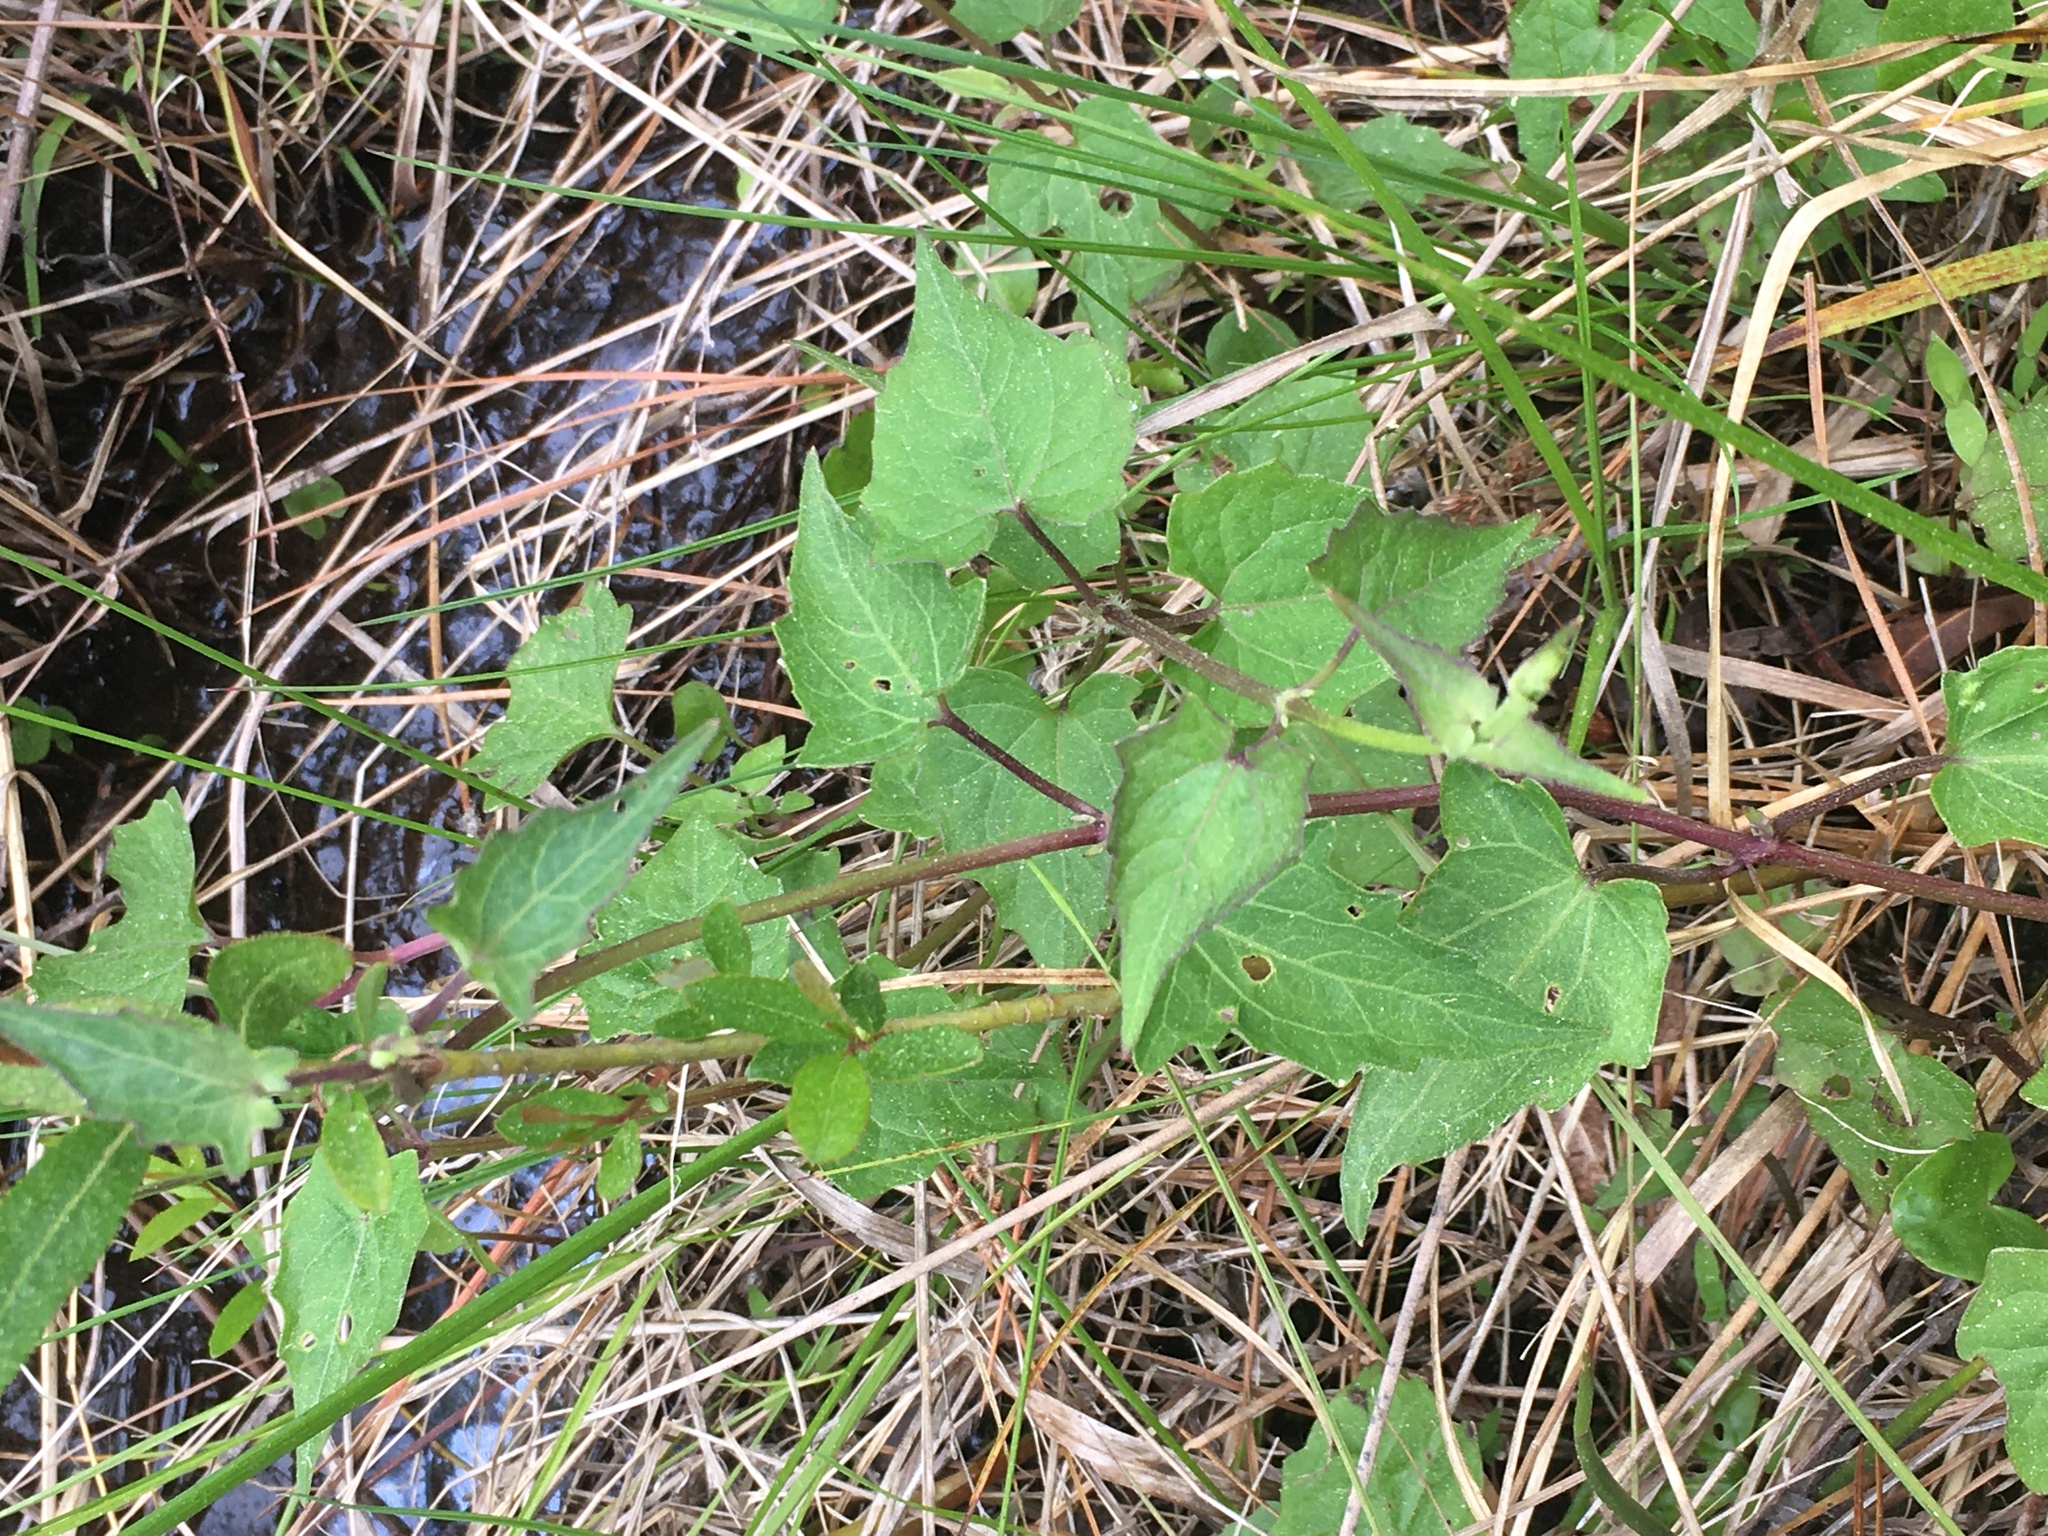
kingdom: Plantae
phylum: Tracheophyta
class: Magnoliopsida
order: Asterales
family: Asteraceae
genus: Mikania
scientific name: Mikania scandens
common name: Climbing hempvine
